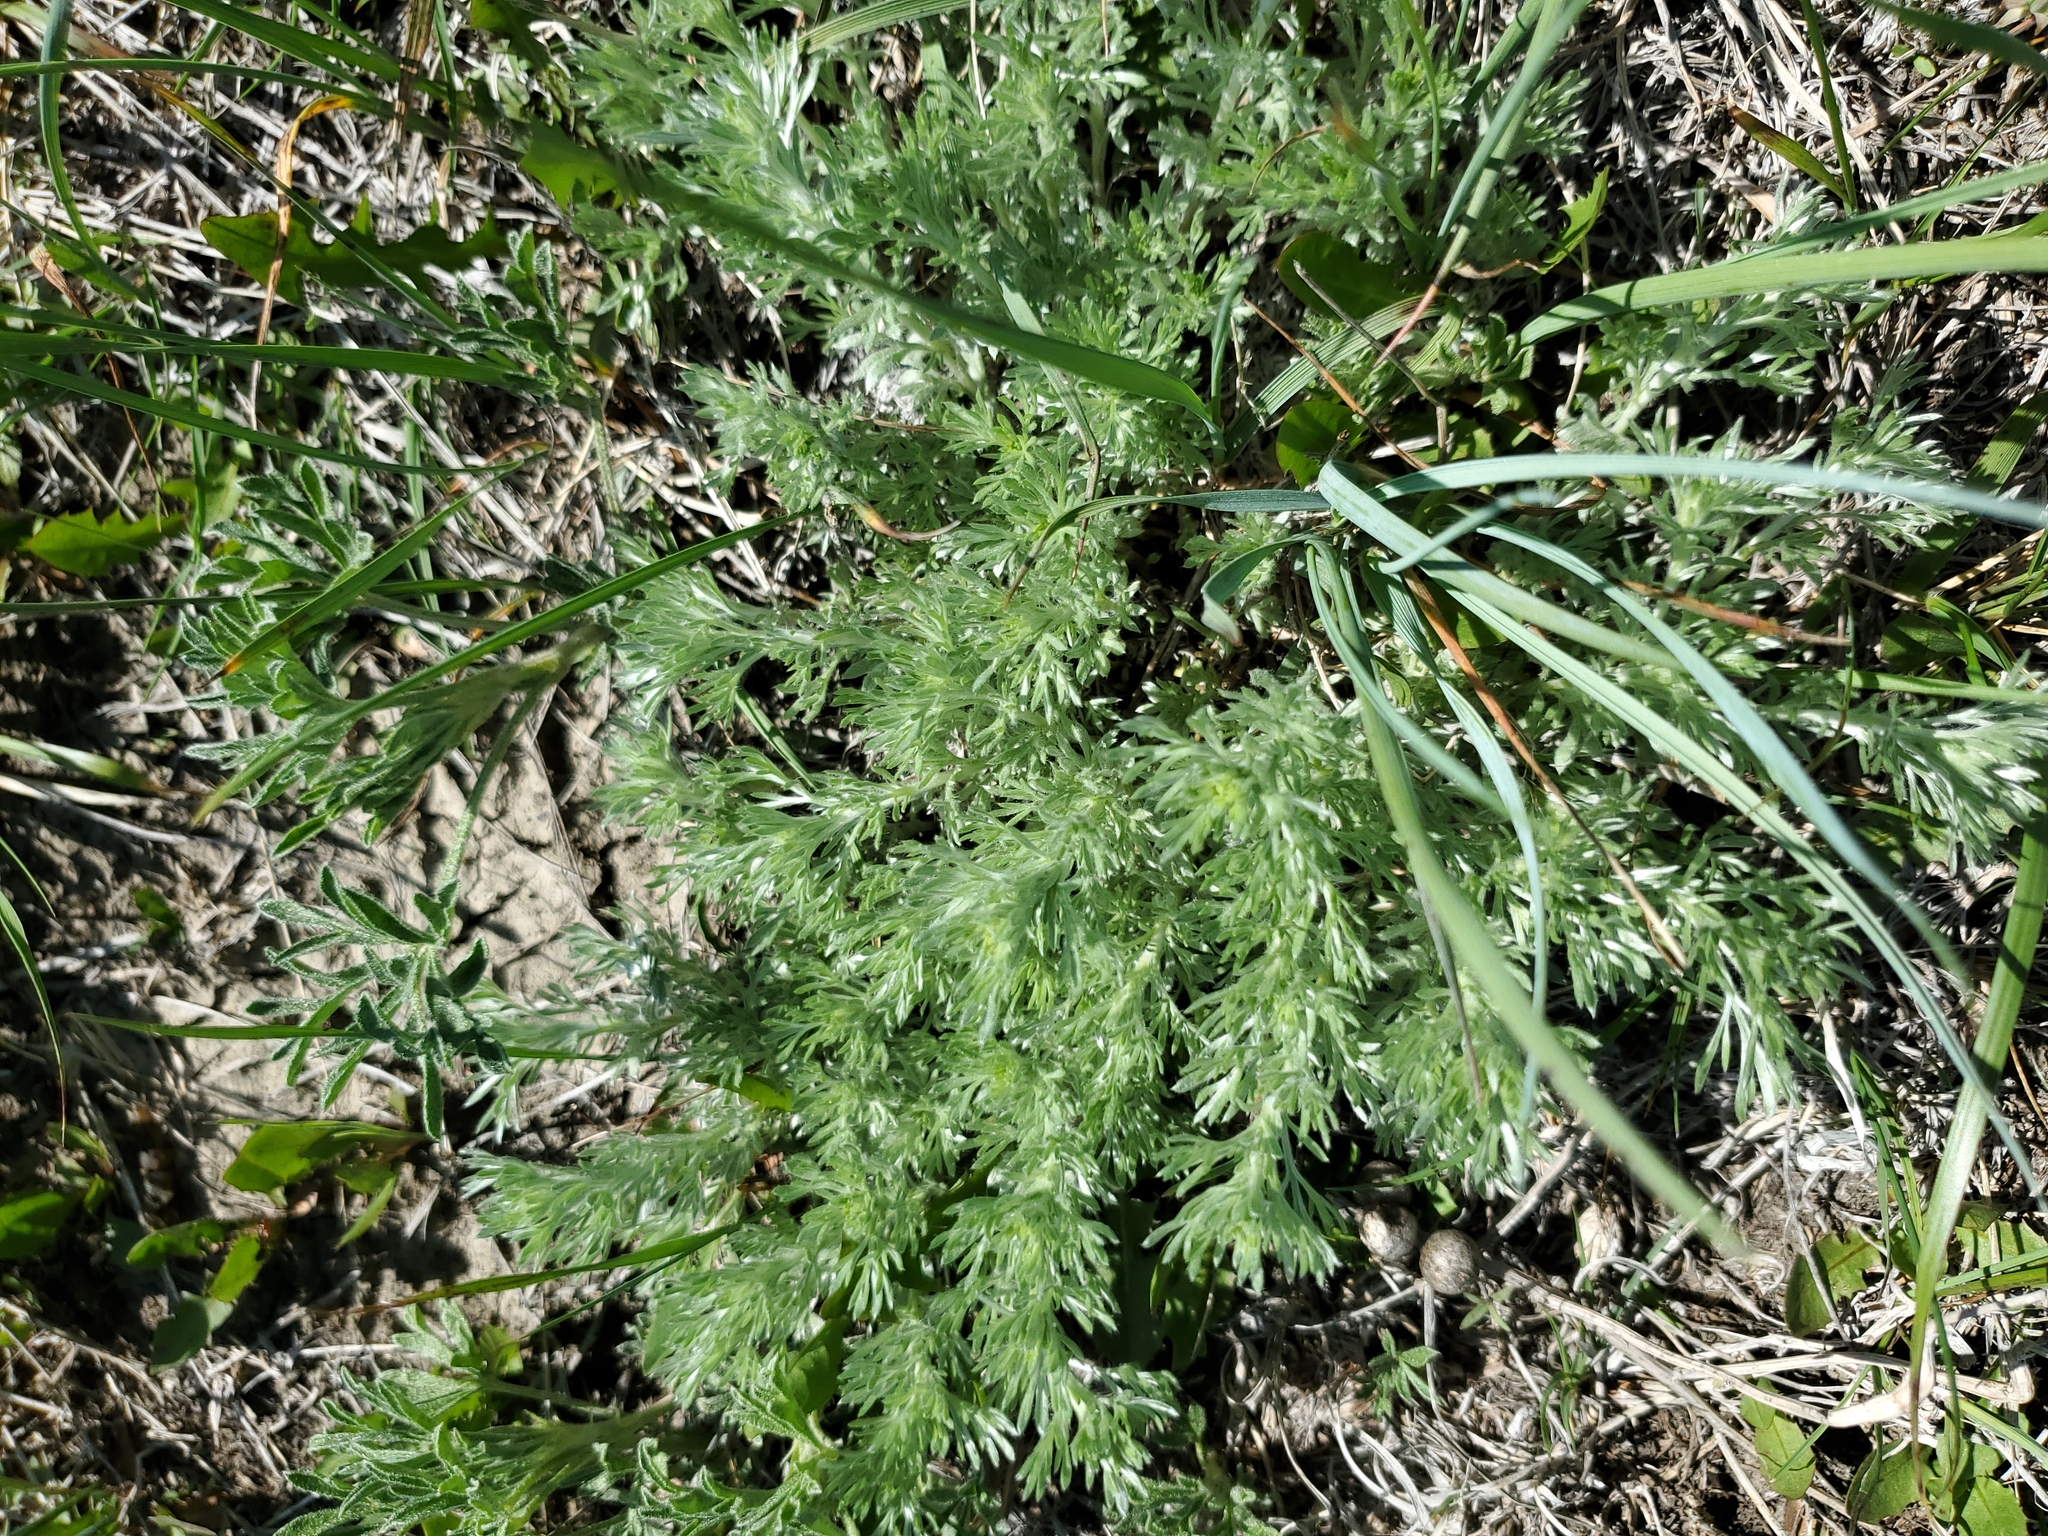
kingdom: Plantae
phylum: Tracheophyta
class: Magnoliopsida
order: Asterales
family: Asteraceae
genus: Artemisia
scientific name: Artemisia frigida
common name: Prairie sagewort
